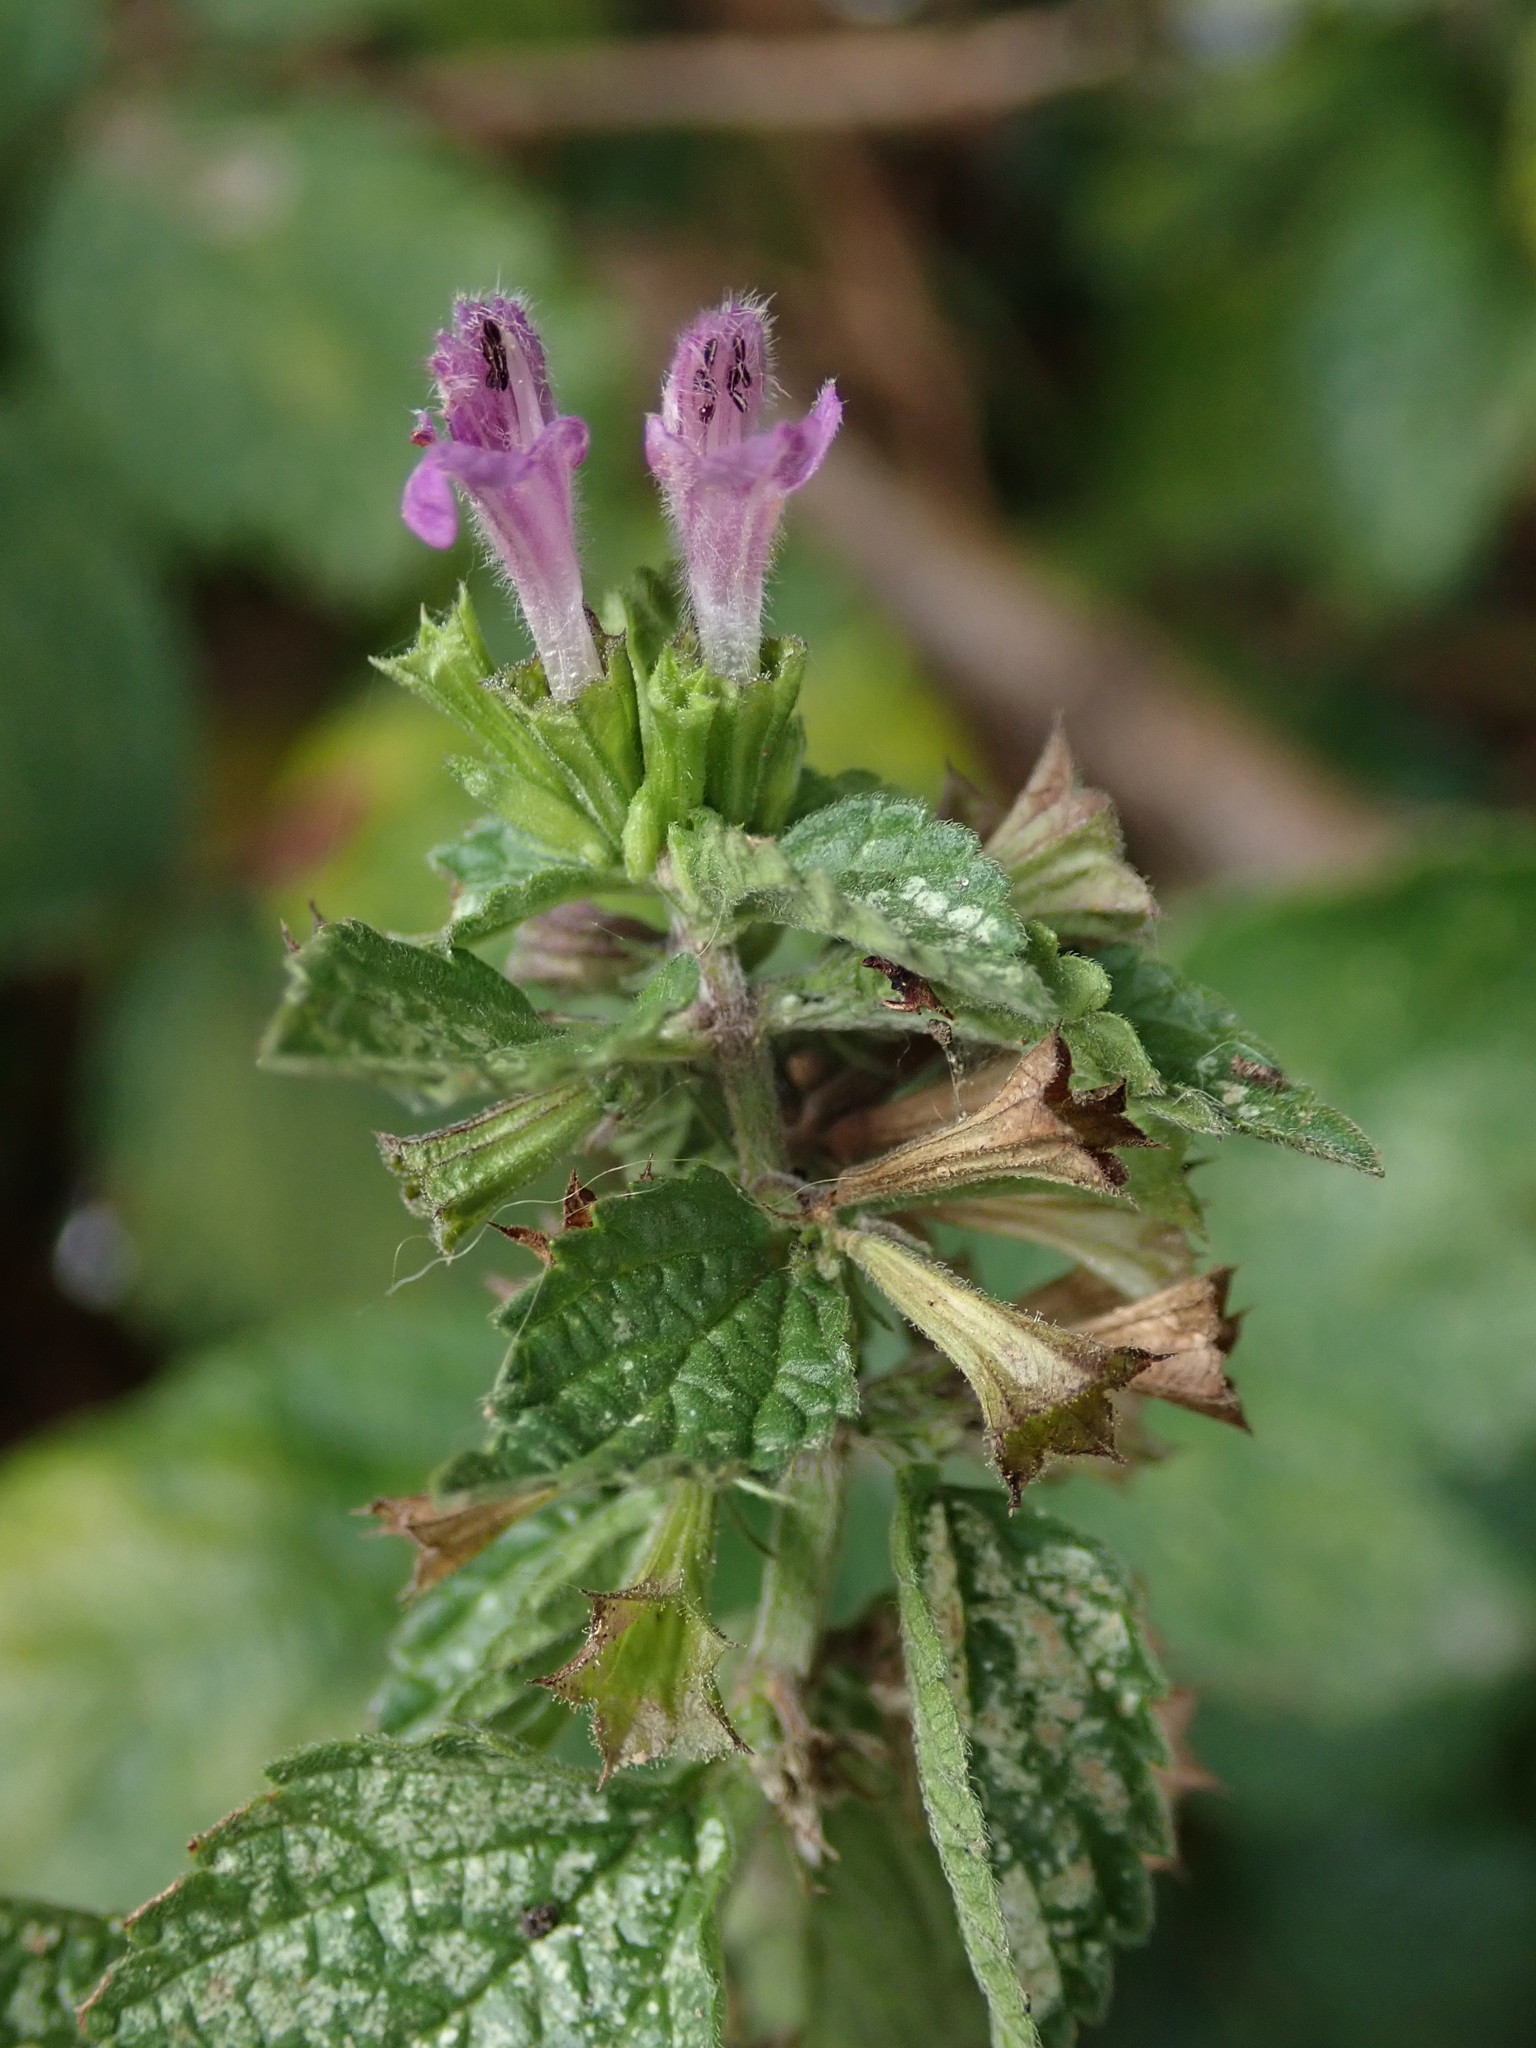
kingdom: Plantae
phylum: Tracheophyta
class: Magnoliopsida
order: Lamiales
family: Lamiaceae
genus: Ballota
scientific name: Ballota nigra
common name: Black horehound
